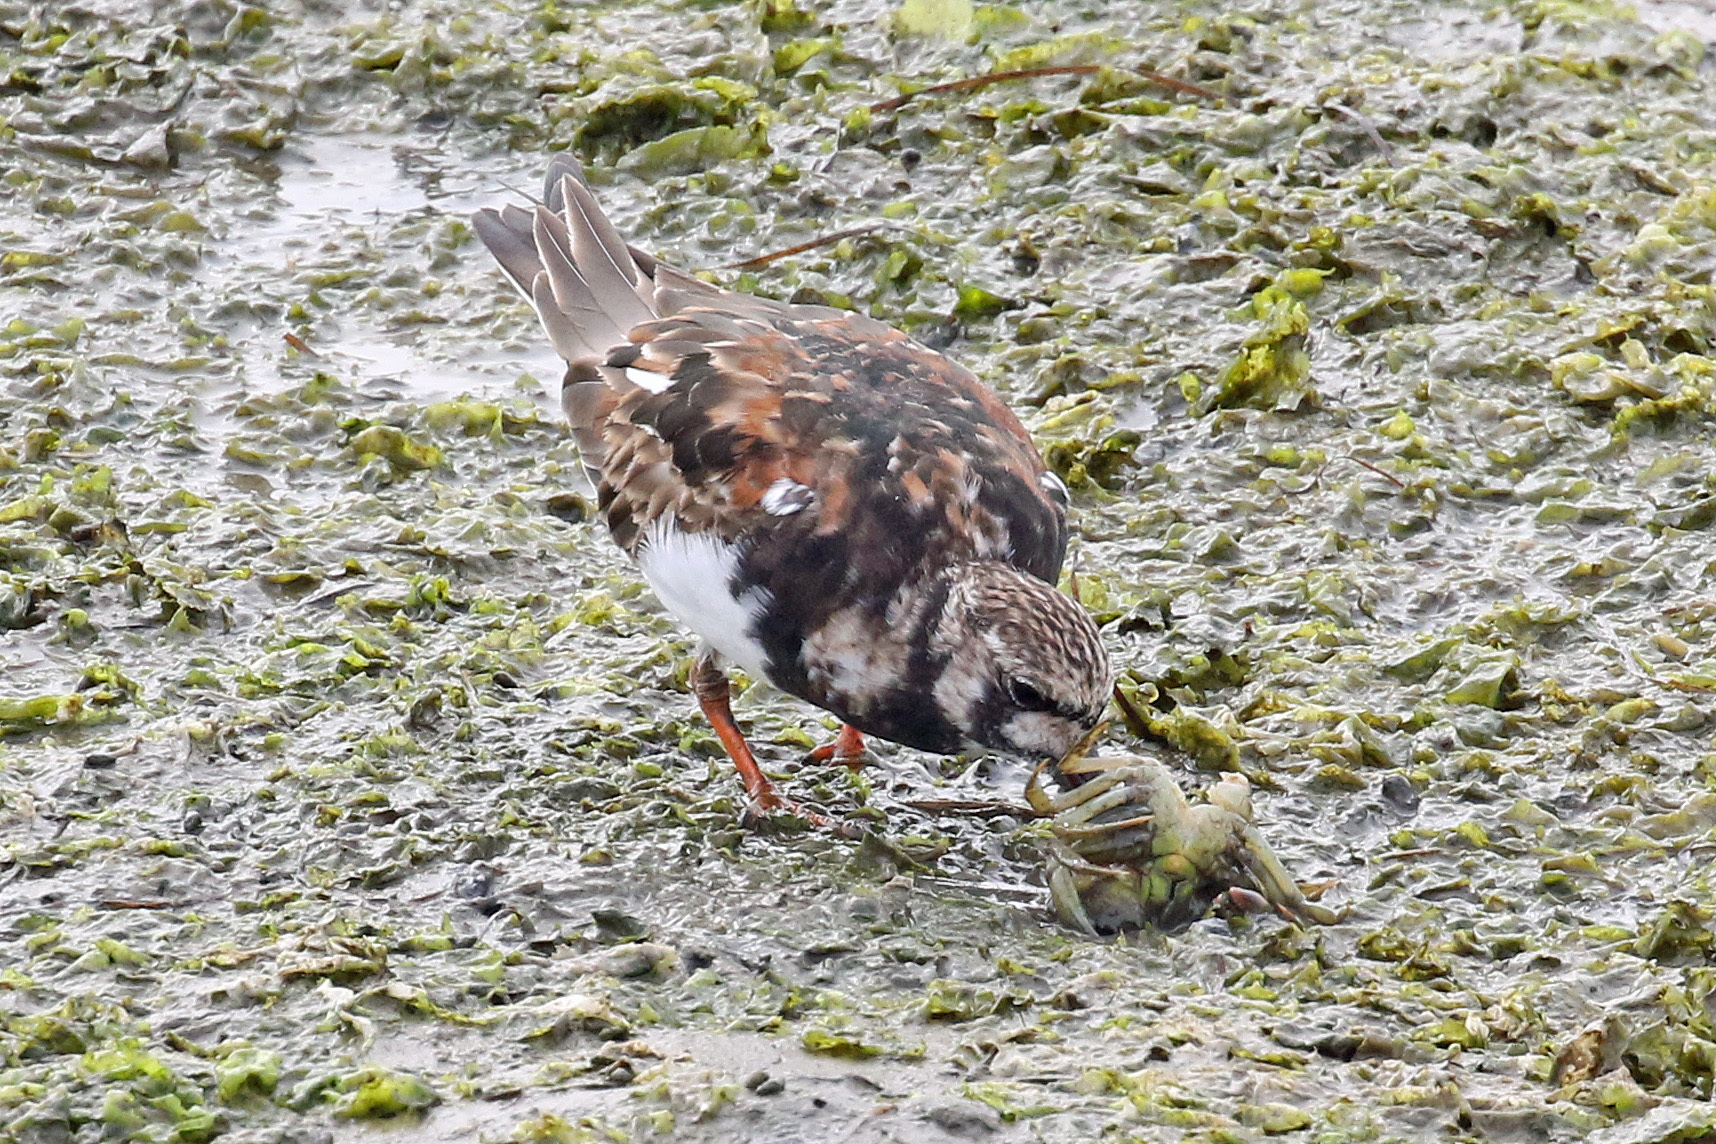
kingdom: Animalia
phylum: Chordata
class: Aves
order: Charadriiformes
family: Scolopacidae
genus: Arenaria
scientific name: Arenaria interpres
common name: Ruddy turnstone
